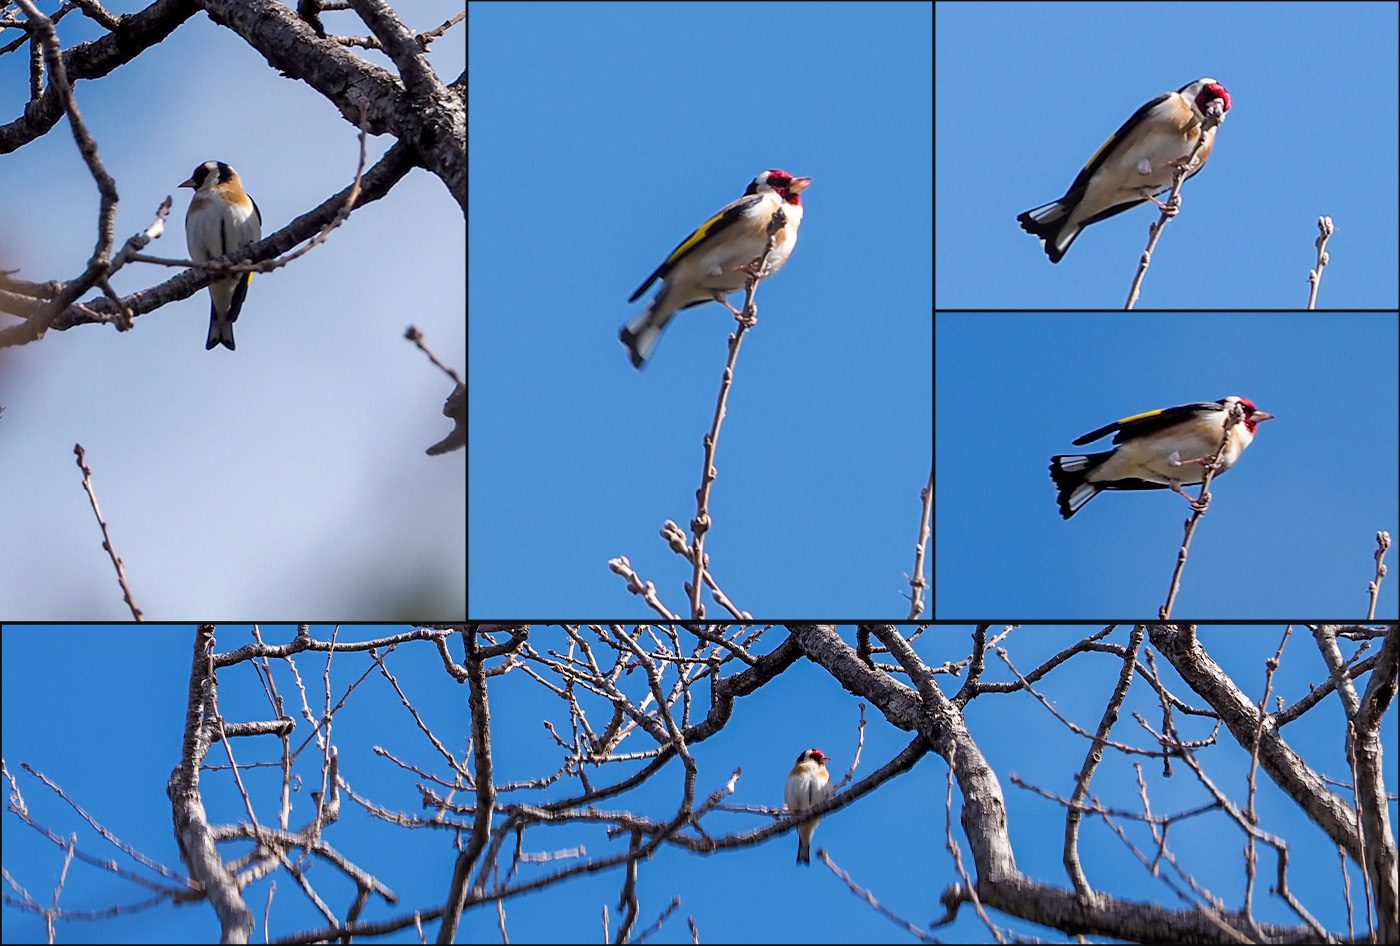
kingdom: Animalia
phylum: Chordata
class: Aves
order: Passeriformes
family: Fringillidae
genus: Carduelis
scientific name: Carduelis carduelis
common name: European goldfinch
